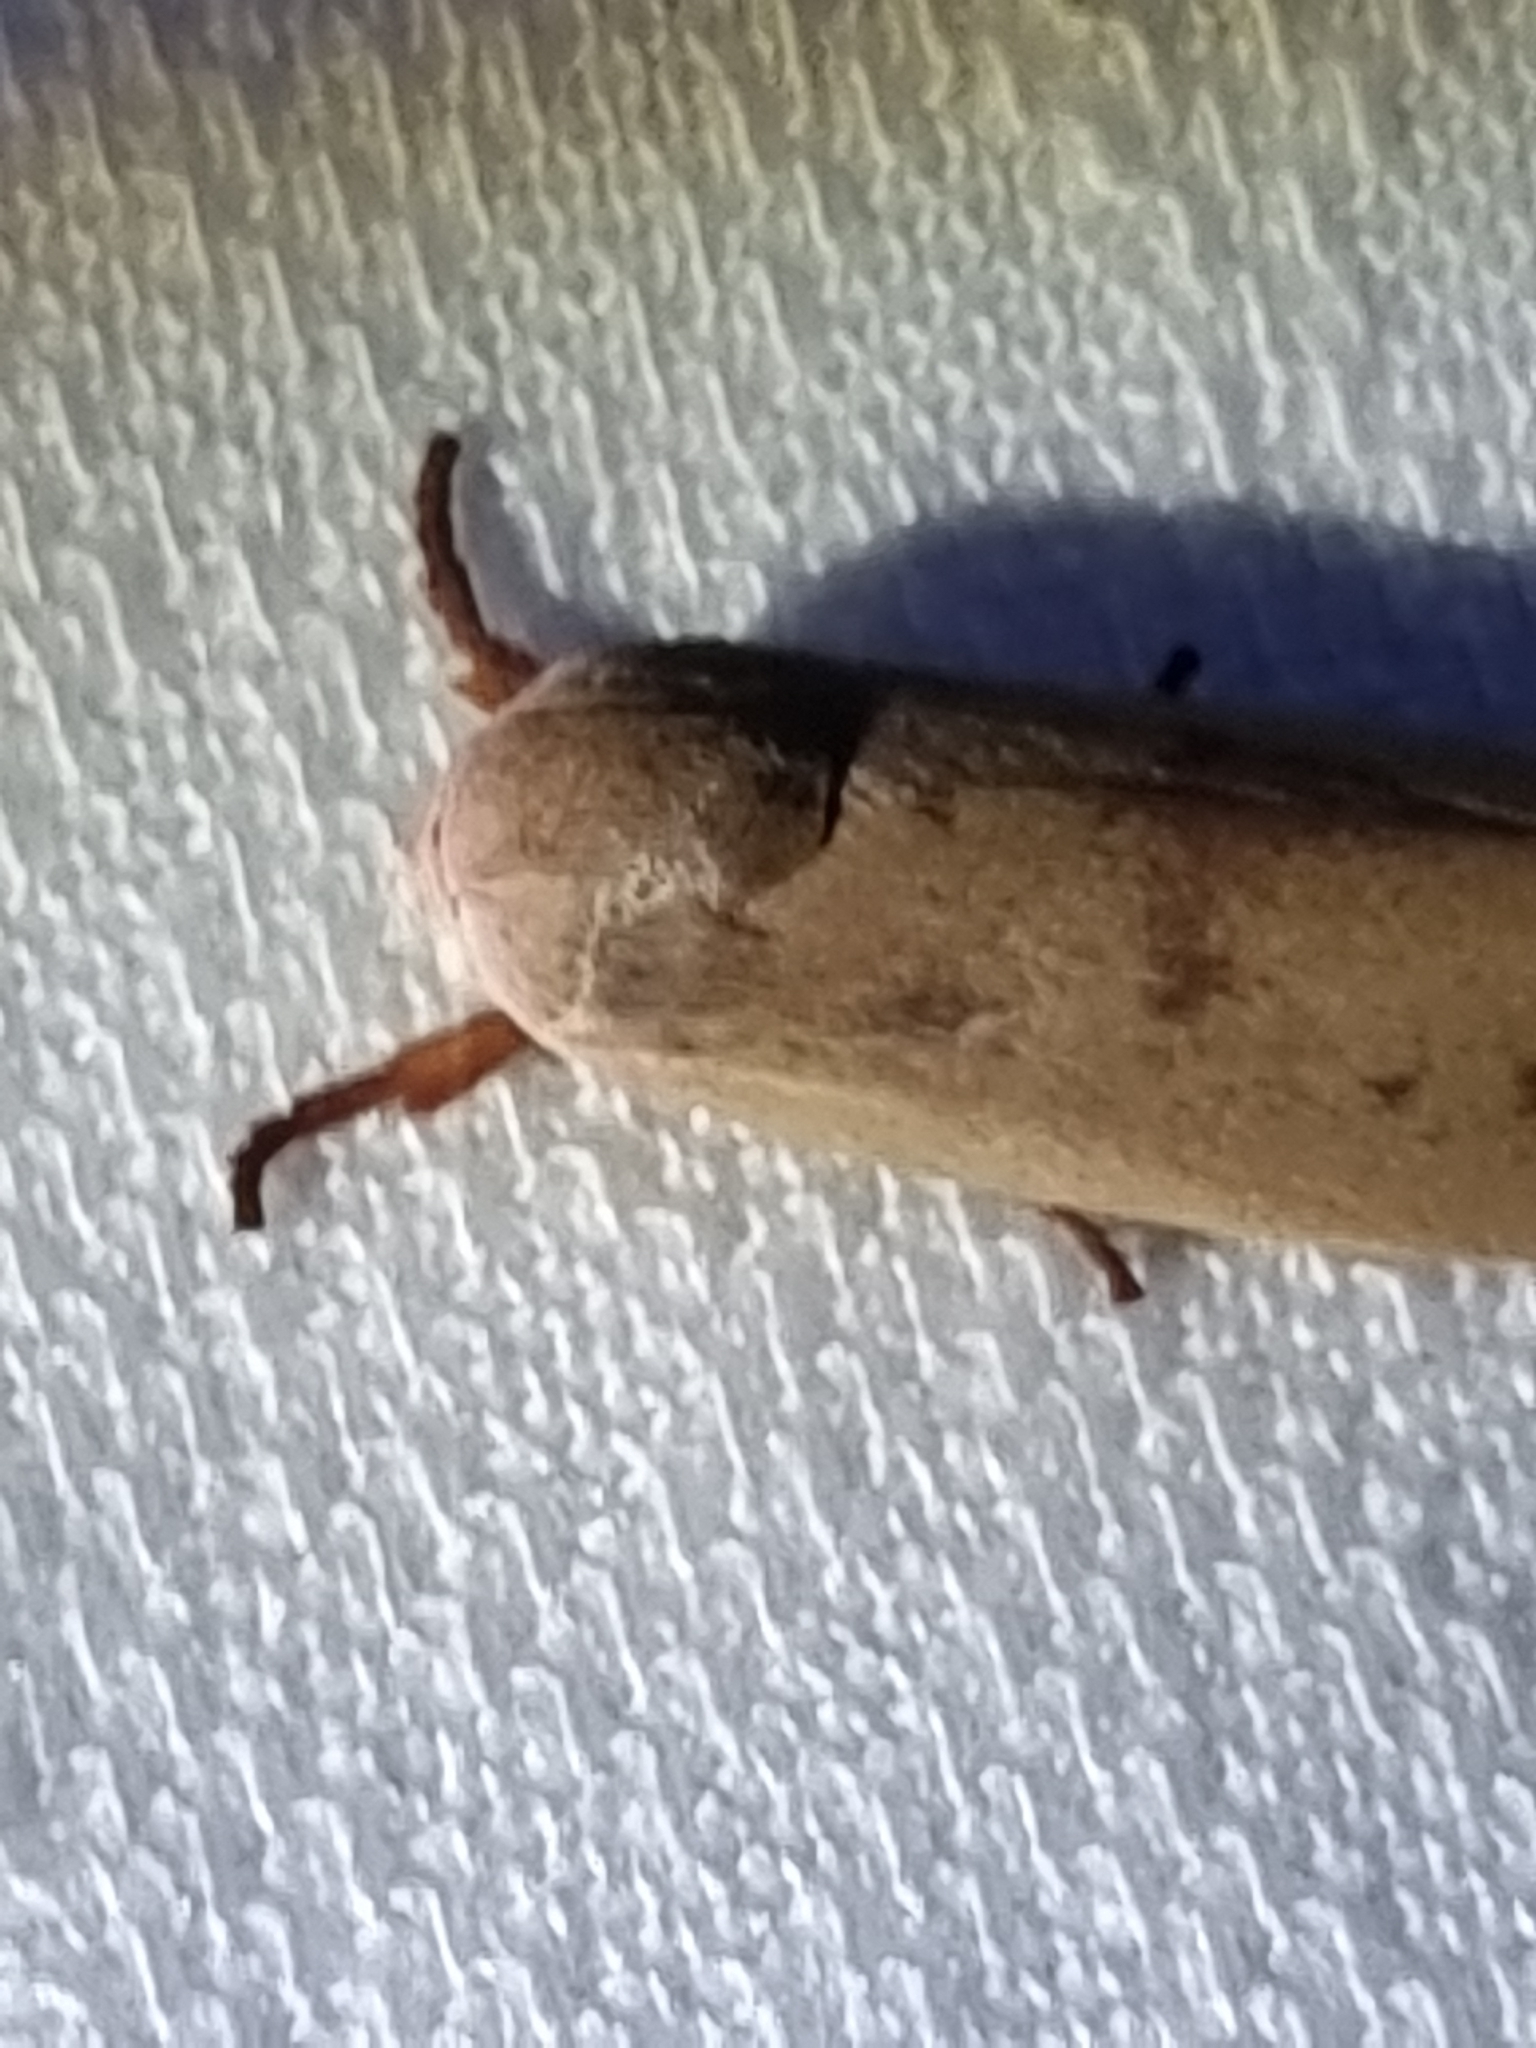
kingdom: Animalia
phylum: Arthropoda
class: Insecta
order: Lepidoptera
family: Xyloryctidae
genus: Cryptophasa
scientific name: Cryptophasa rubescens
